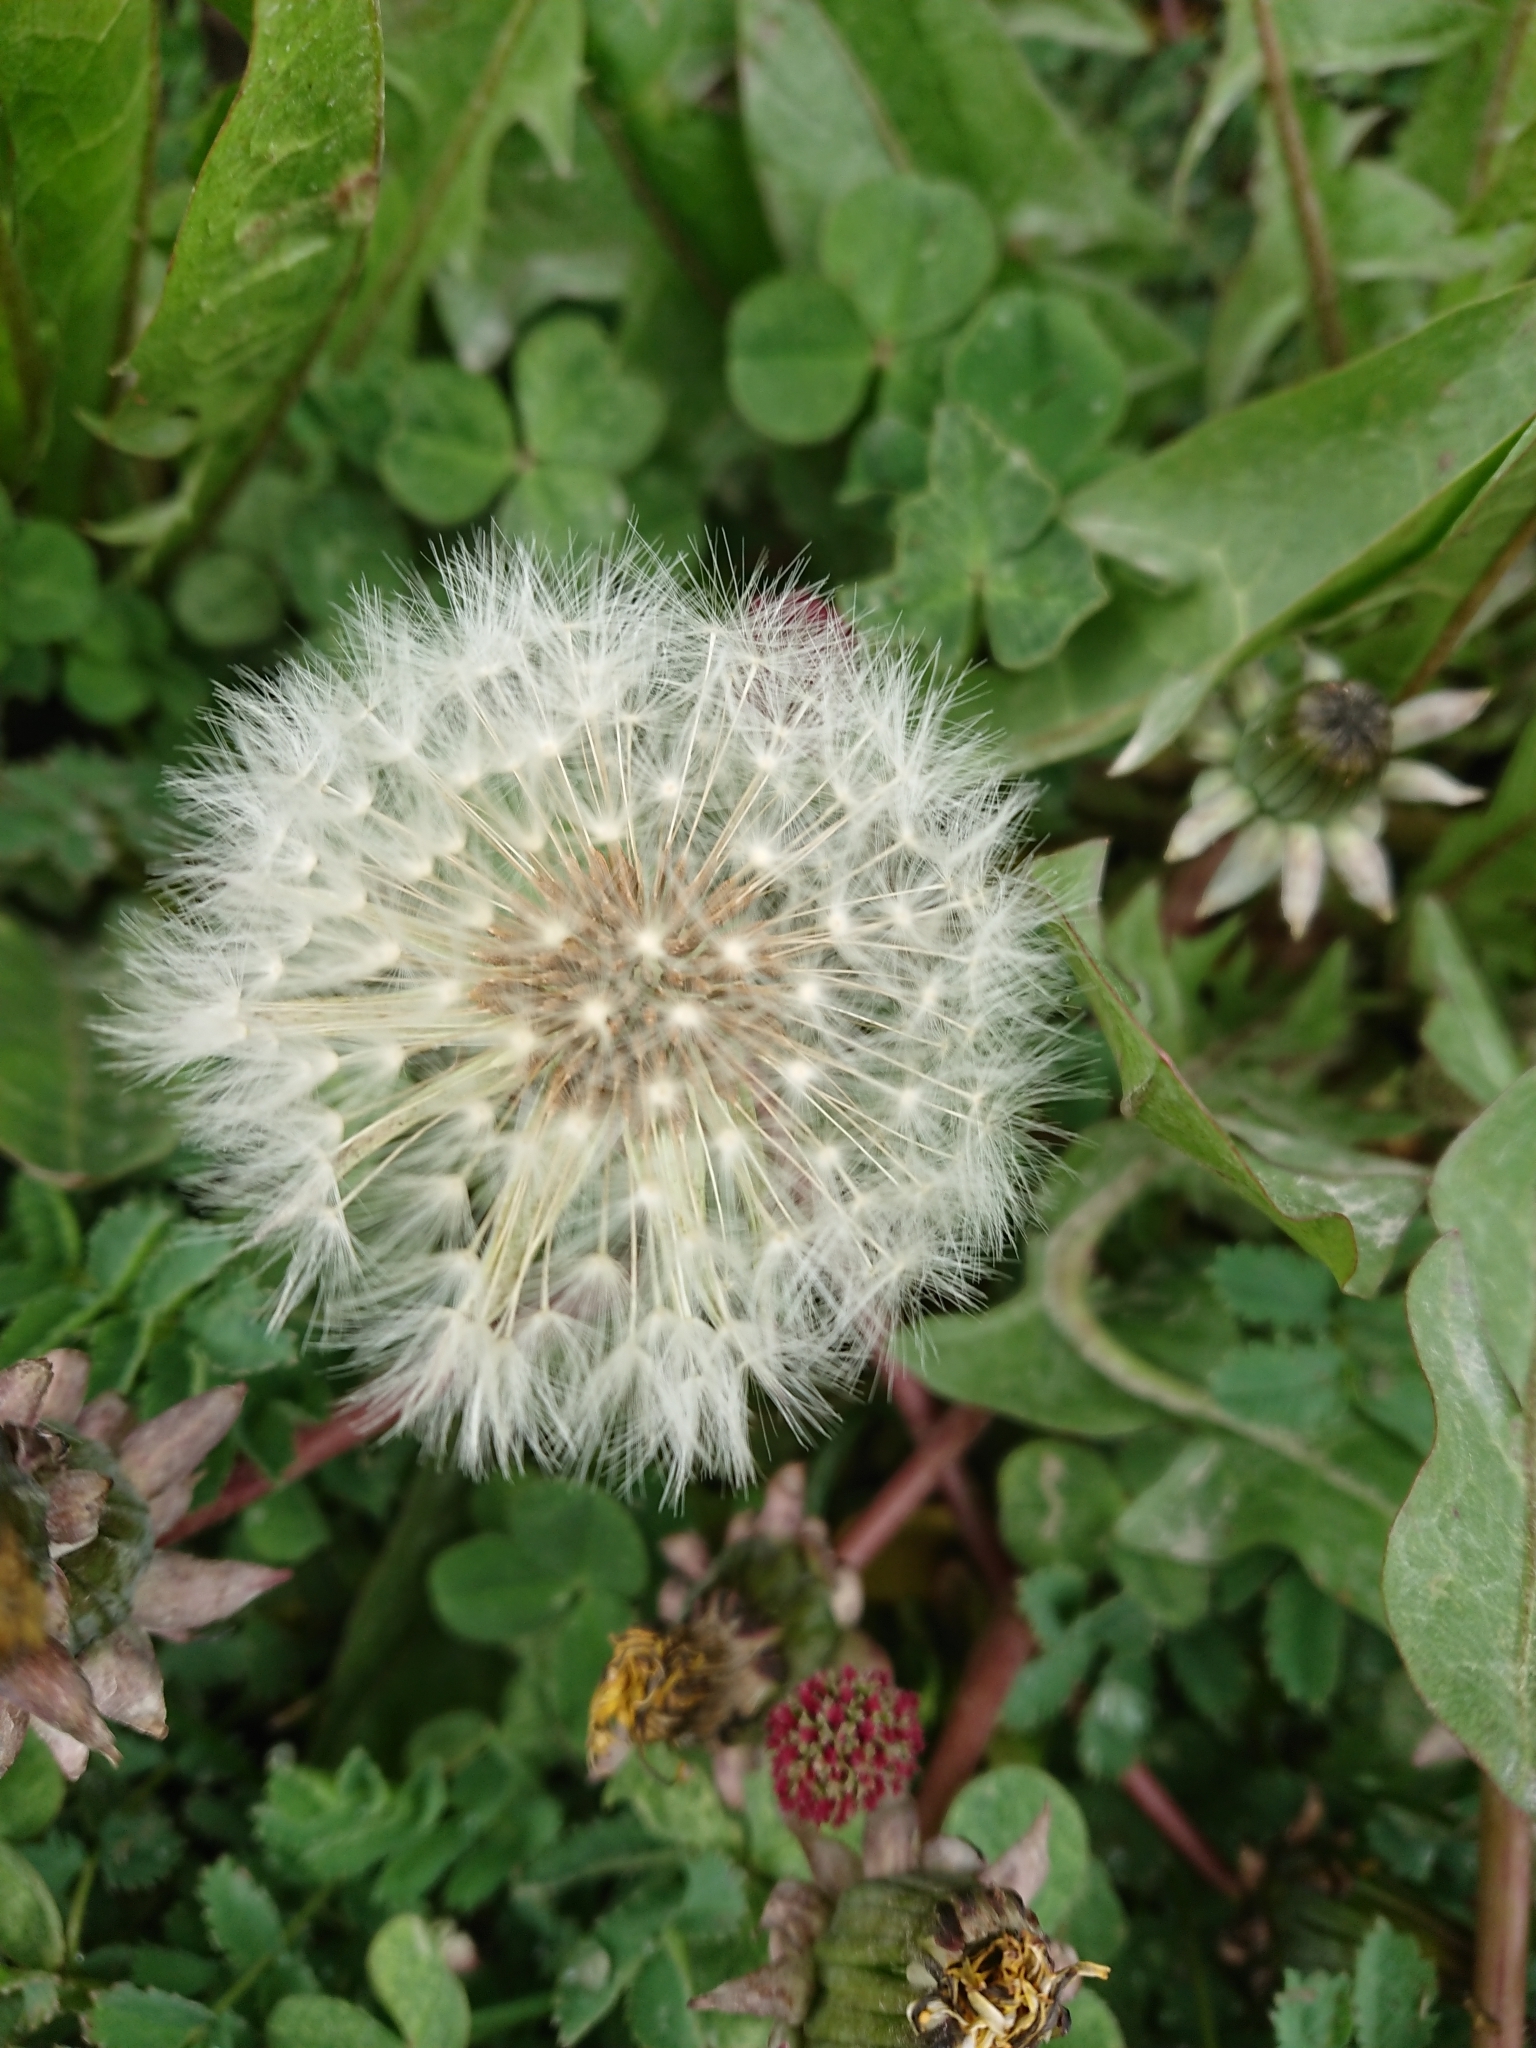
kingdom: Plantae
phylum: Tracheophyta
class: Magnoliopsida
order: Asterales
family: Asteraceae
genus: Taraxacum
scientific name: Taraxacum officinale
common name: Common dandelion
